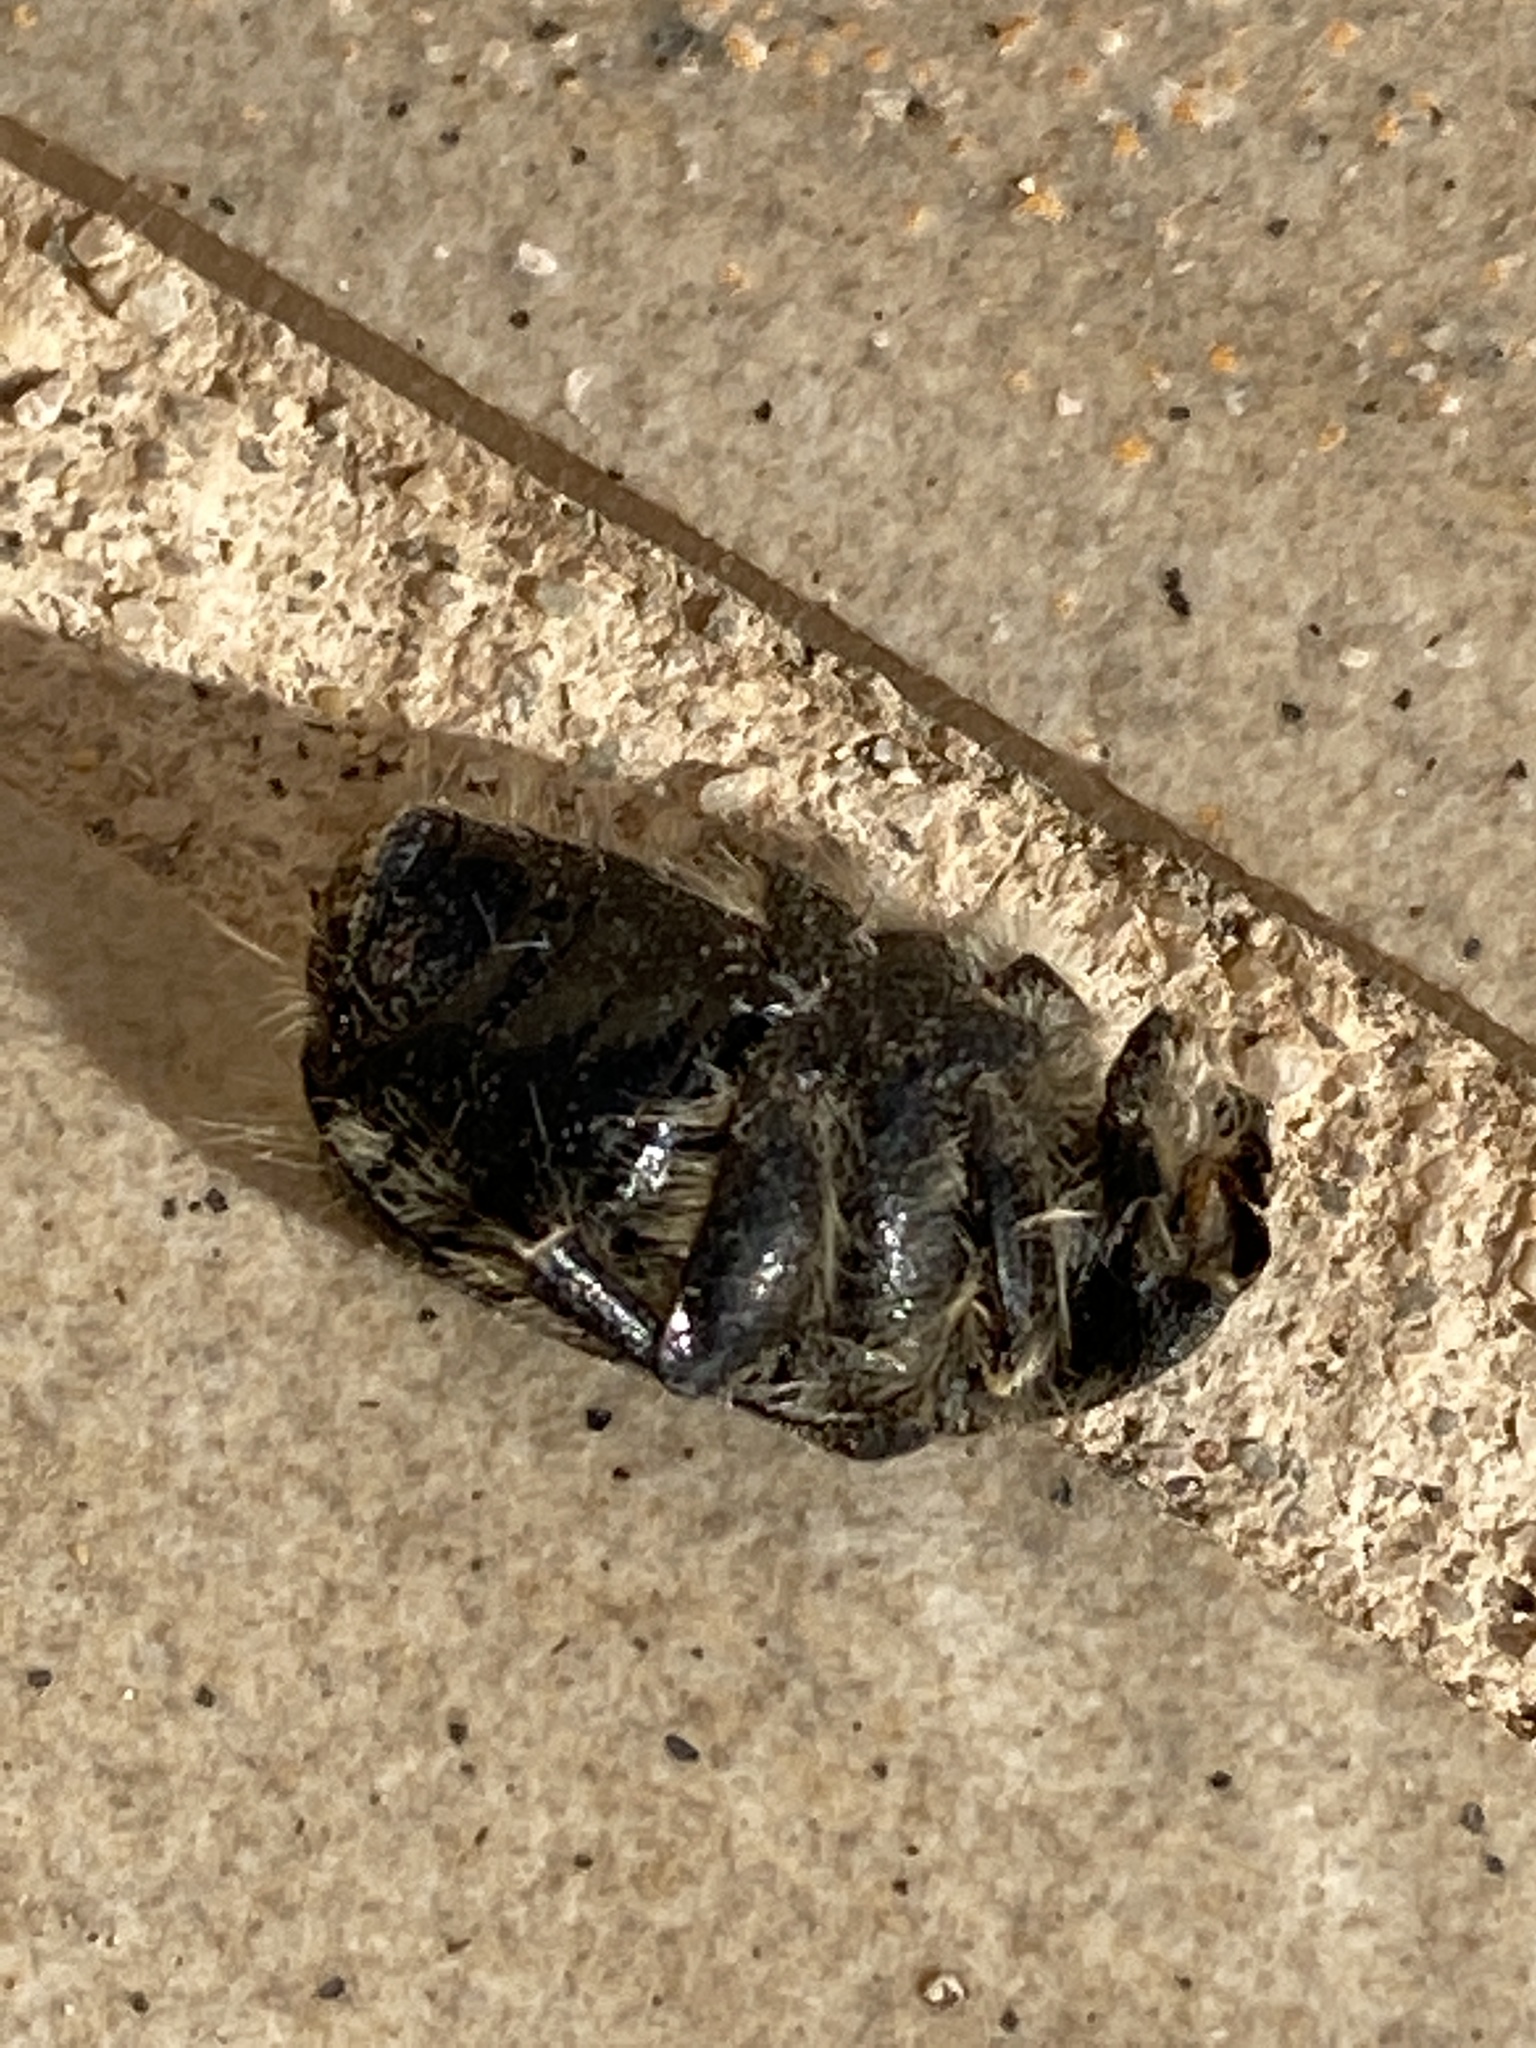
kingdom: Animalia
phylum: Arthropoda
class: Insecta
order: Coleoptera
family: Scarabaeidae
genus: Tropinota
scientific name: Tropinota squalida
